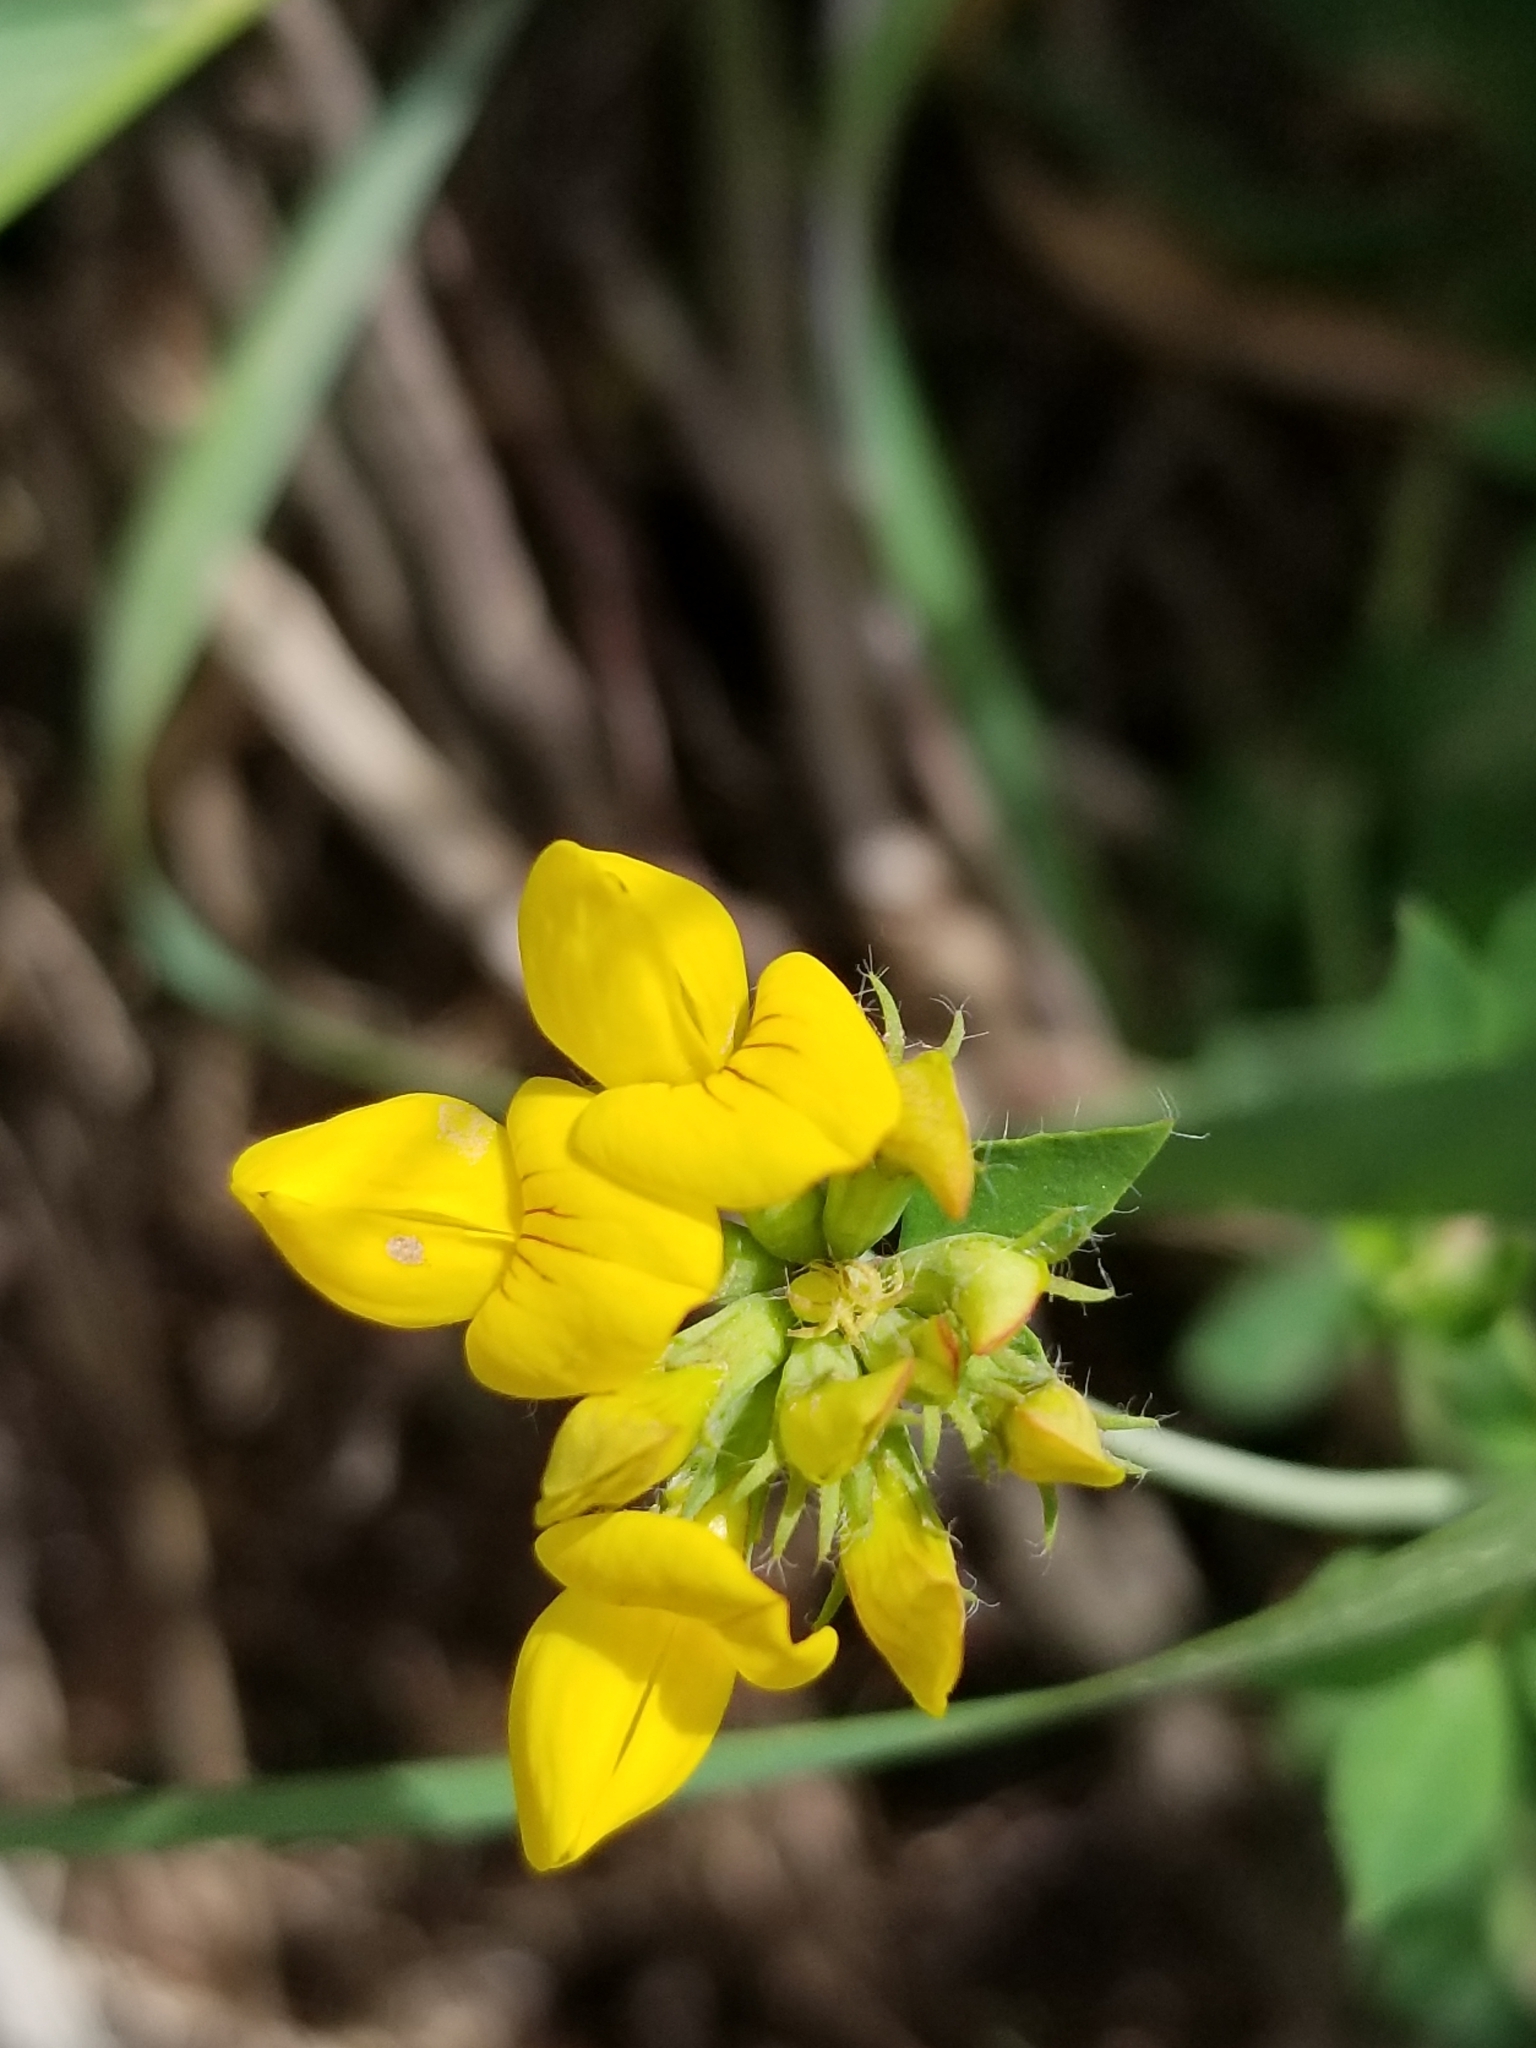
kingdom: Plantae
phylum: Tracheophyta
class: Magnoliopsida
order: Fabales
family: Fabaceae
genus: Lotus
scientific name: Lotus pedunculatus
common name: Greater birdsfoot-trefoil
